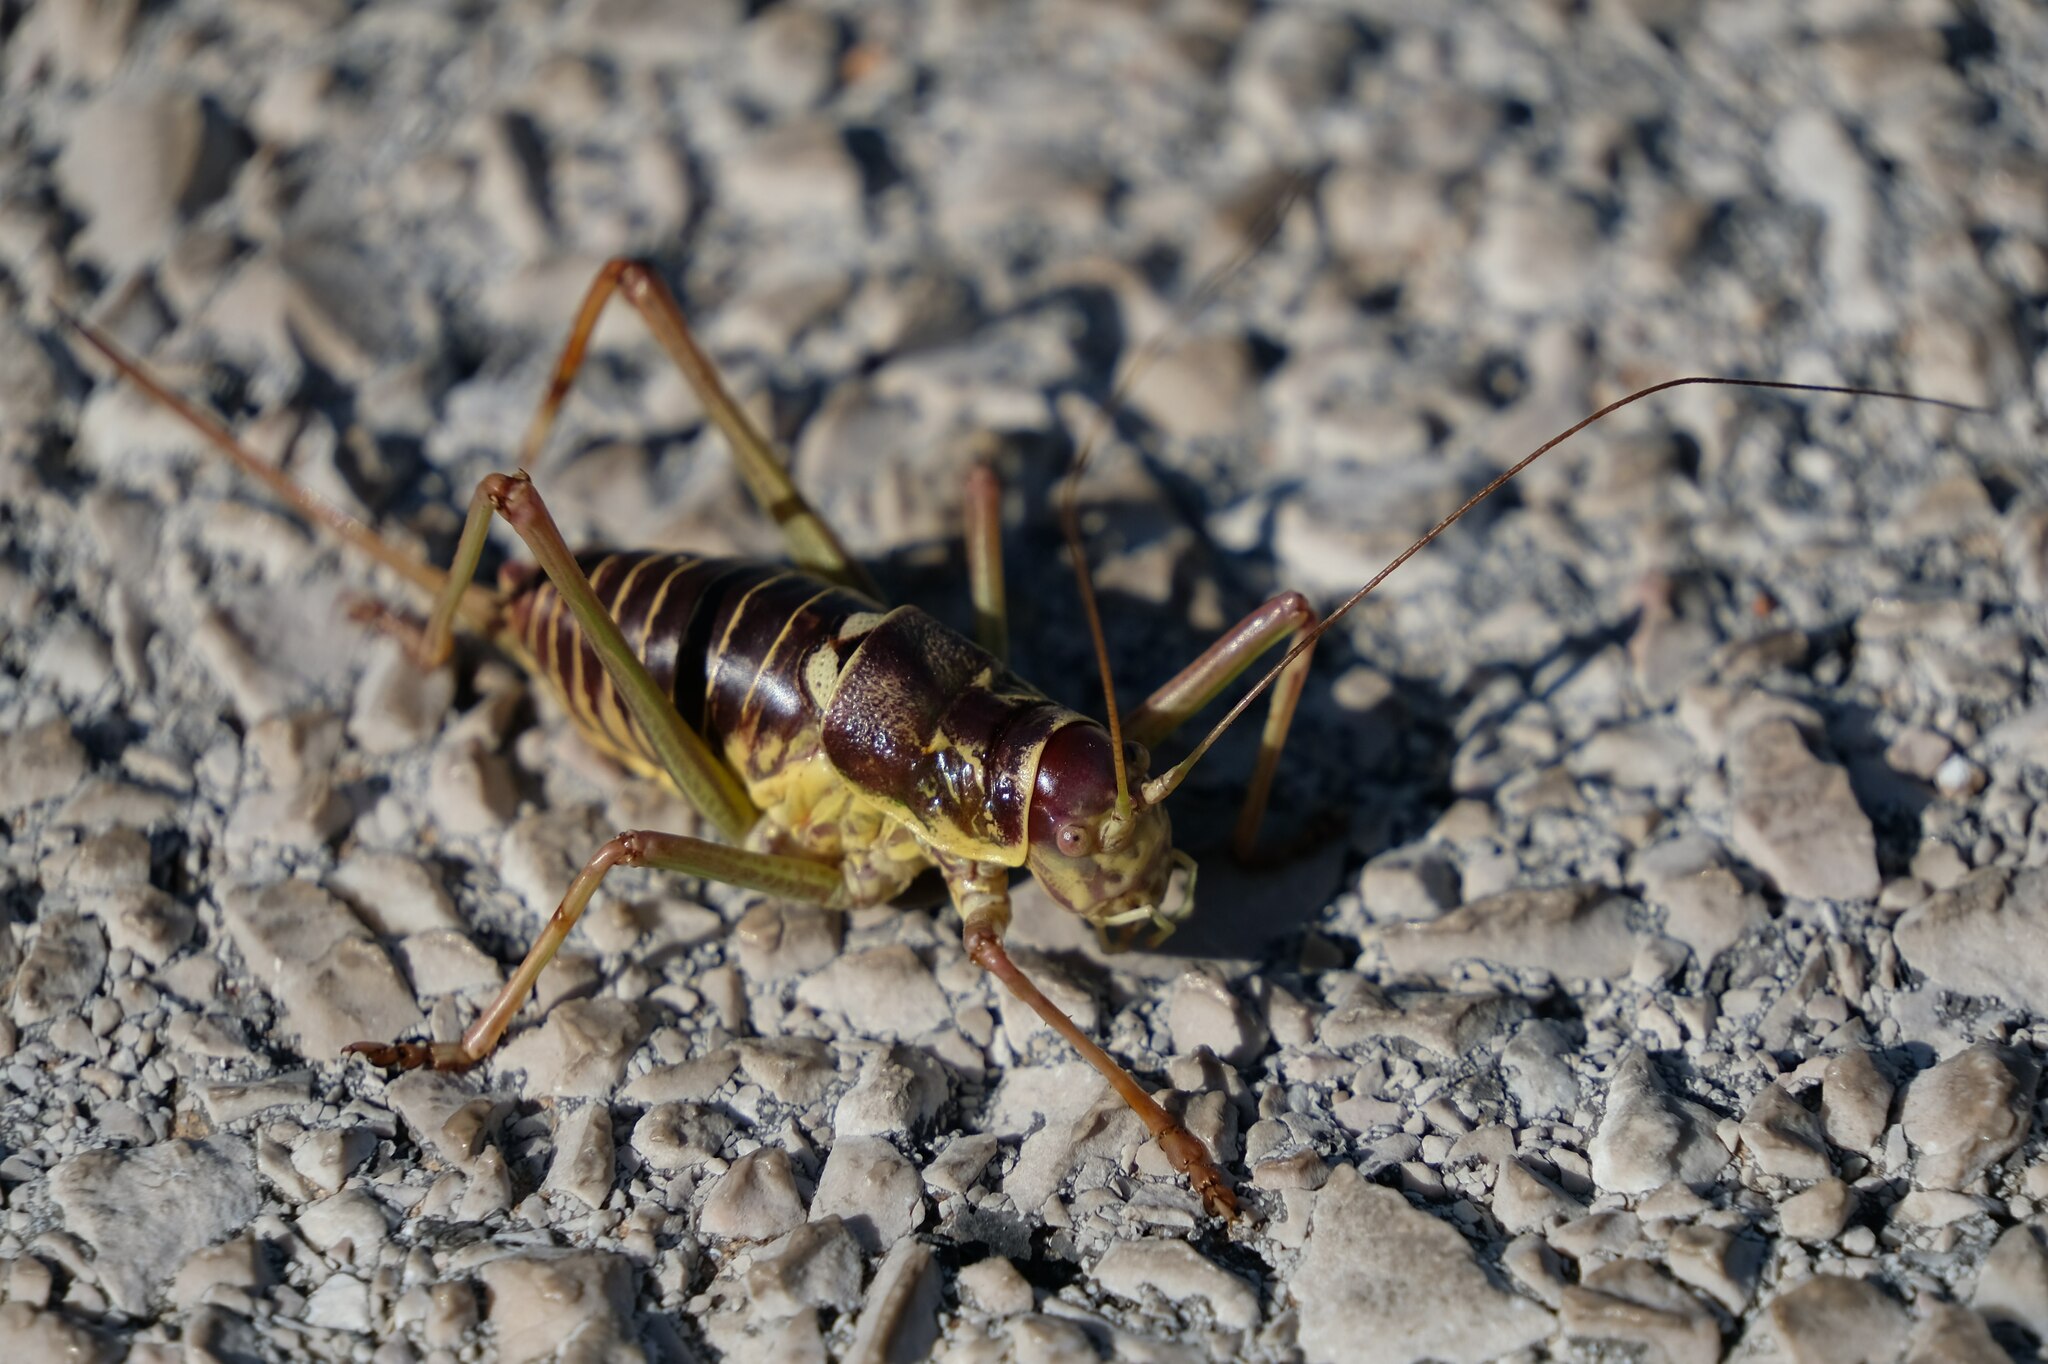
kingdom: Animalia
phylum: Arthropoda
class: Insecta
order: Orthoptera
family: Tettigoniidae
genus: Dinarippiger
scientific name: Dinarippiger discoidalis
